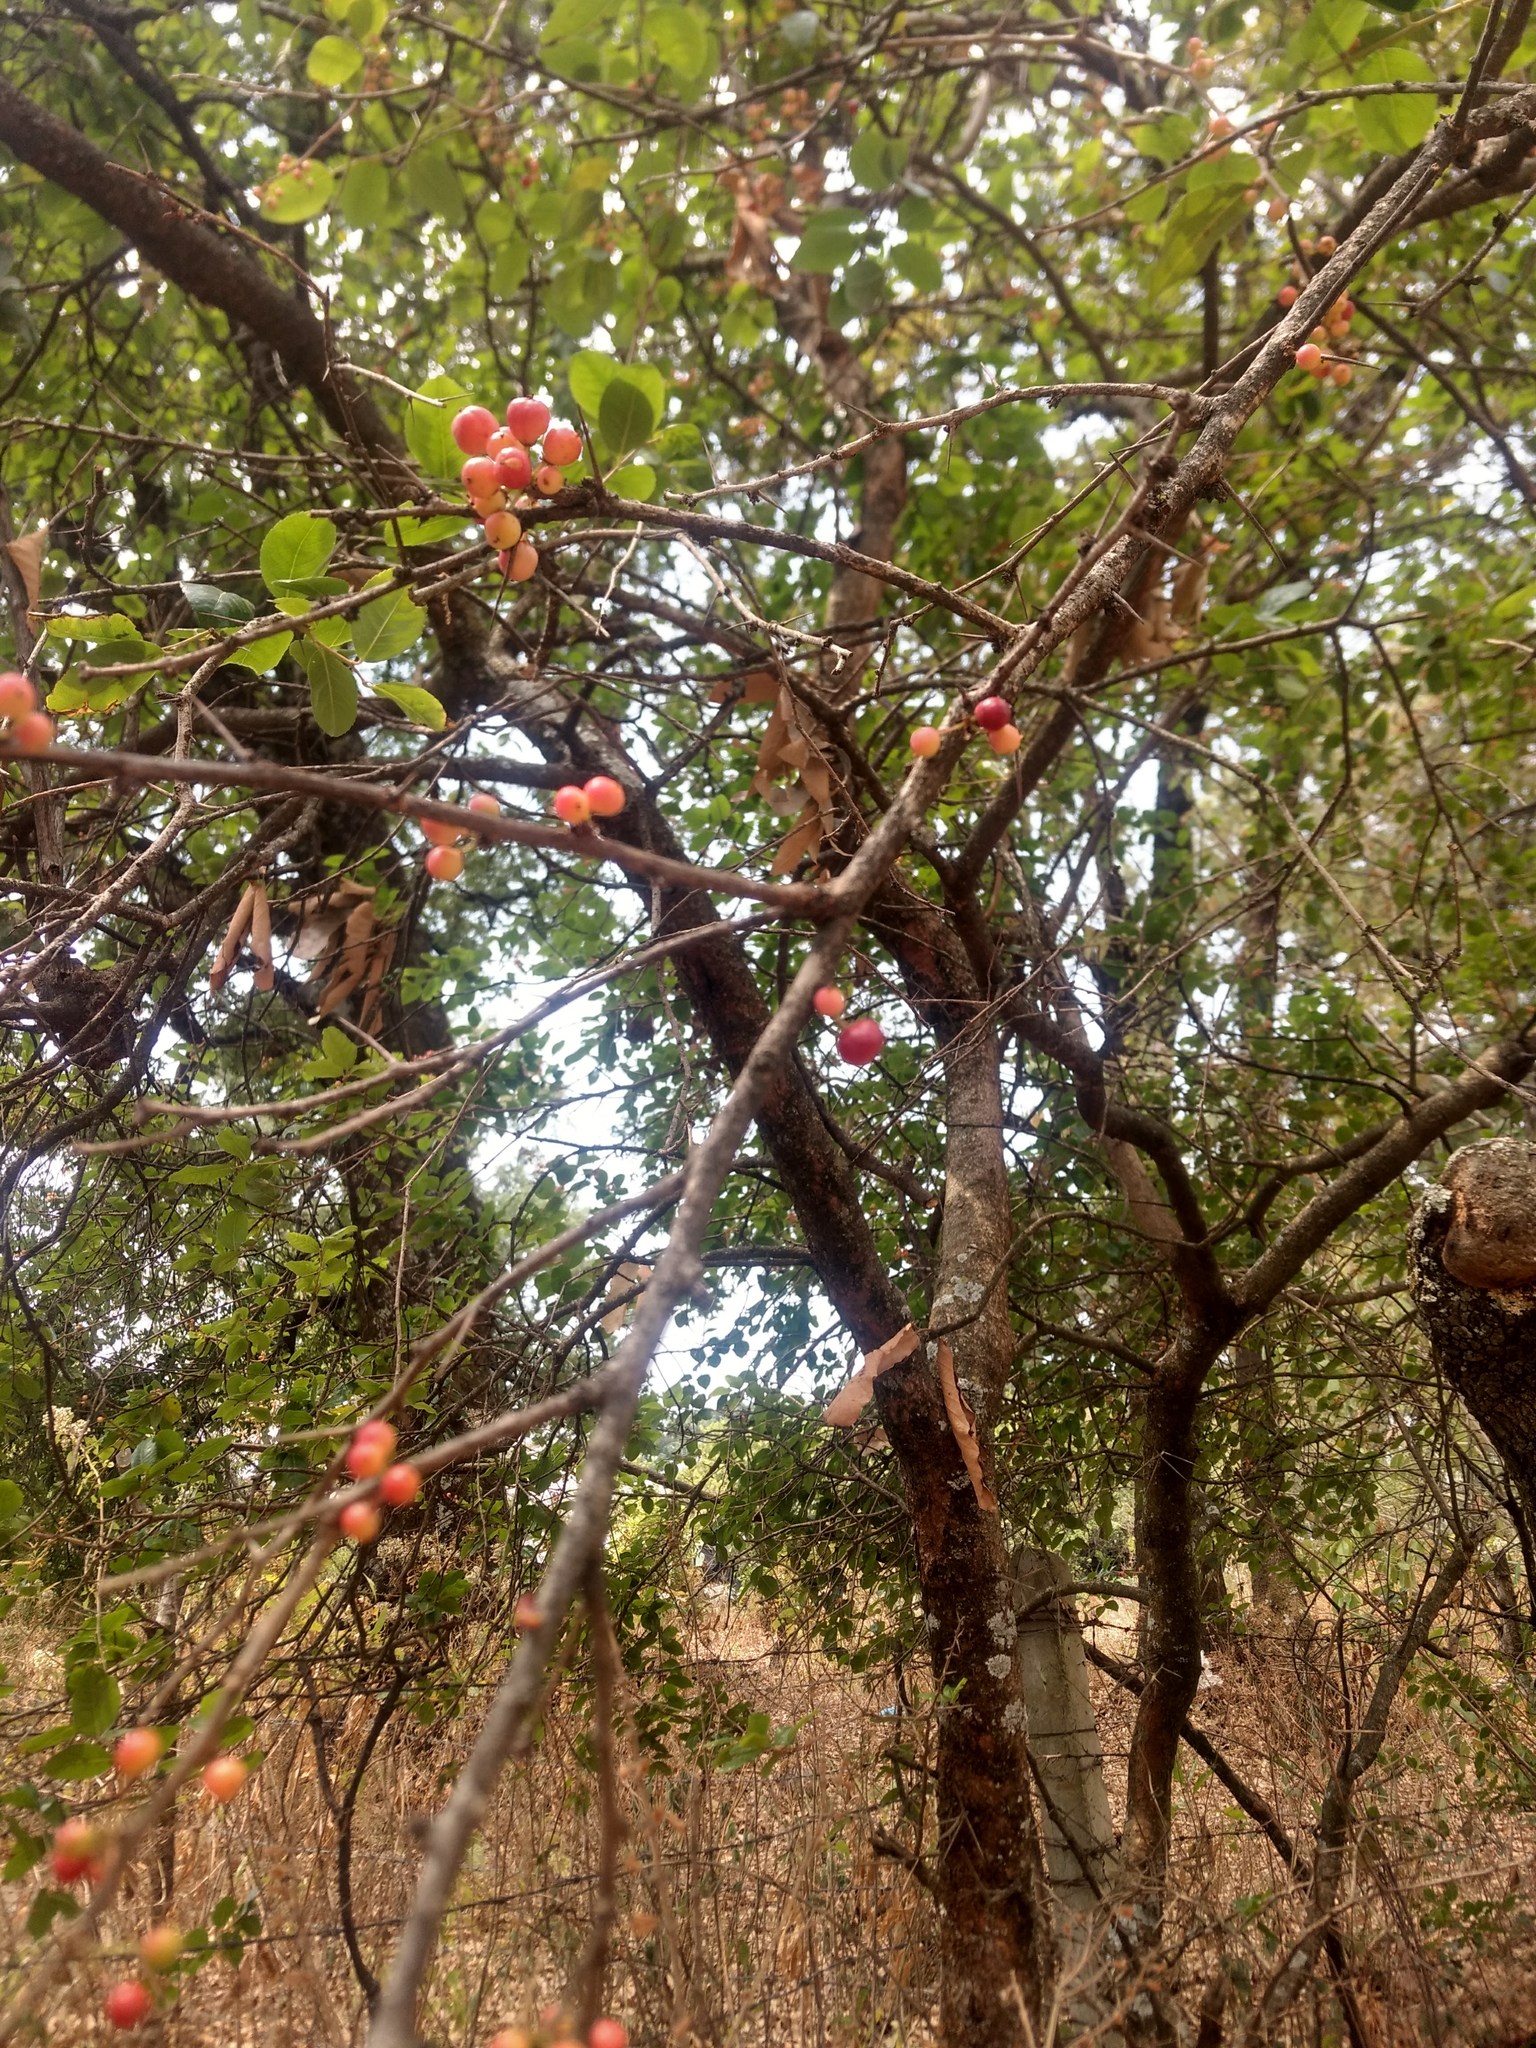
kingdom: Plantae
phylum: Tracheophyta
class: Magnoliopsida
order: Rosales
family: Rosaceae
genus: Malacomeles
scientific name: Malacomeles denticulata
